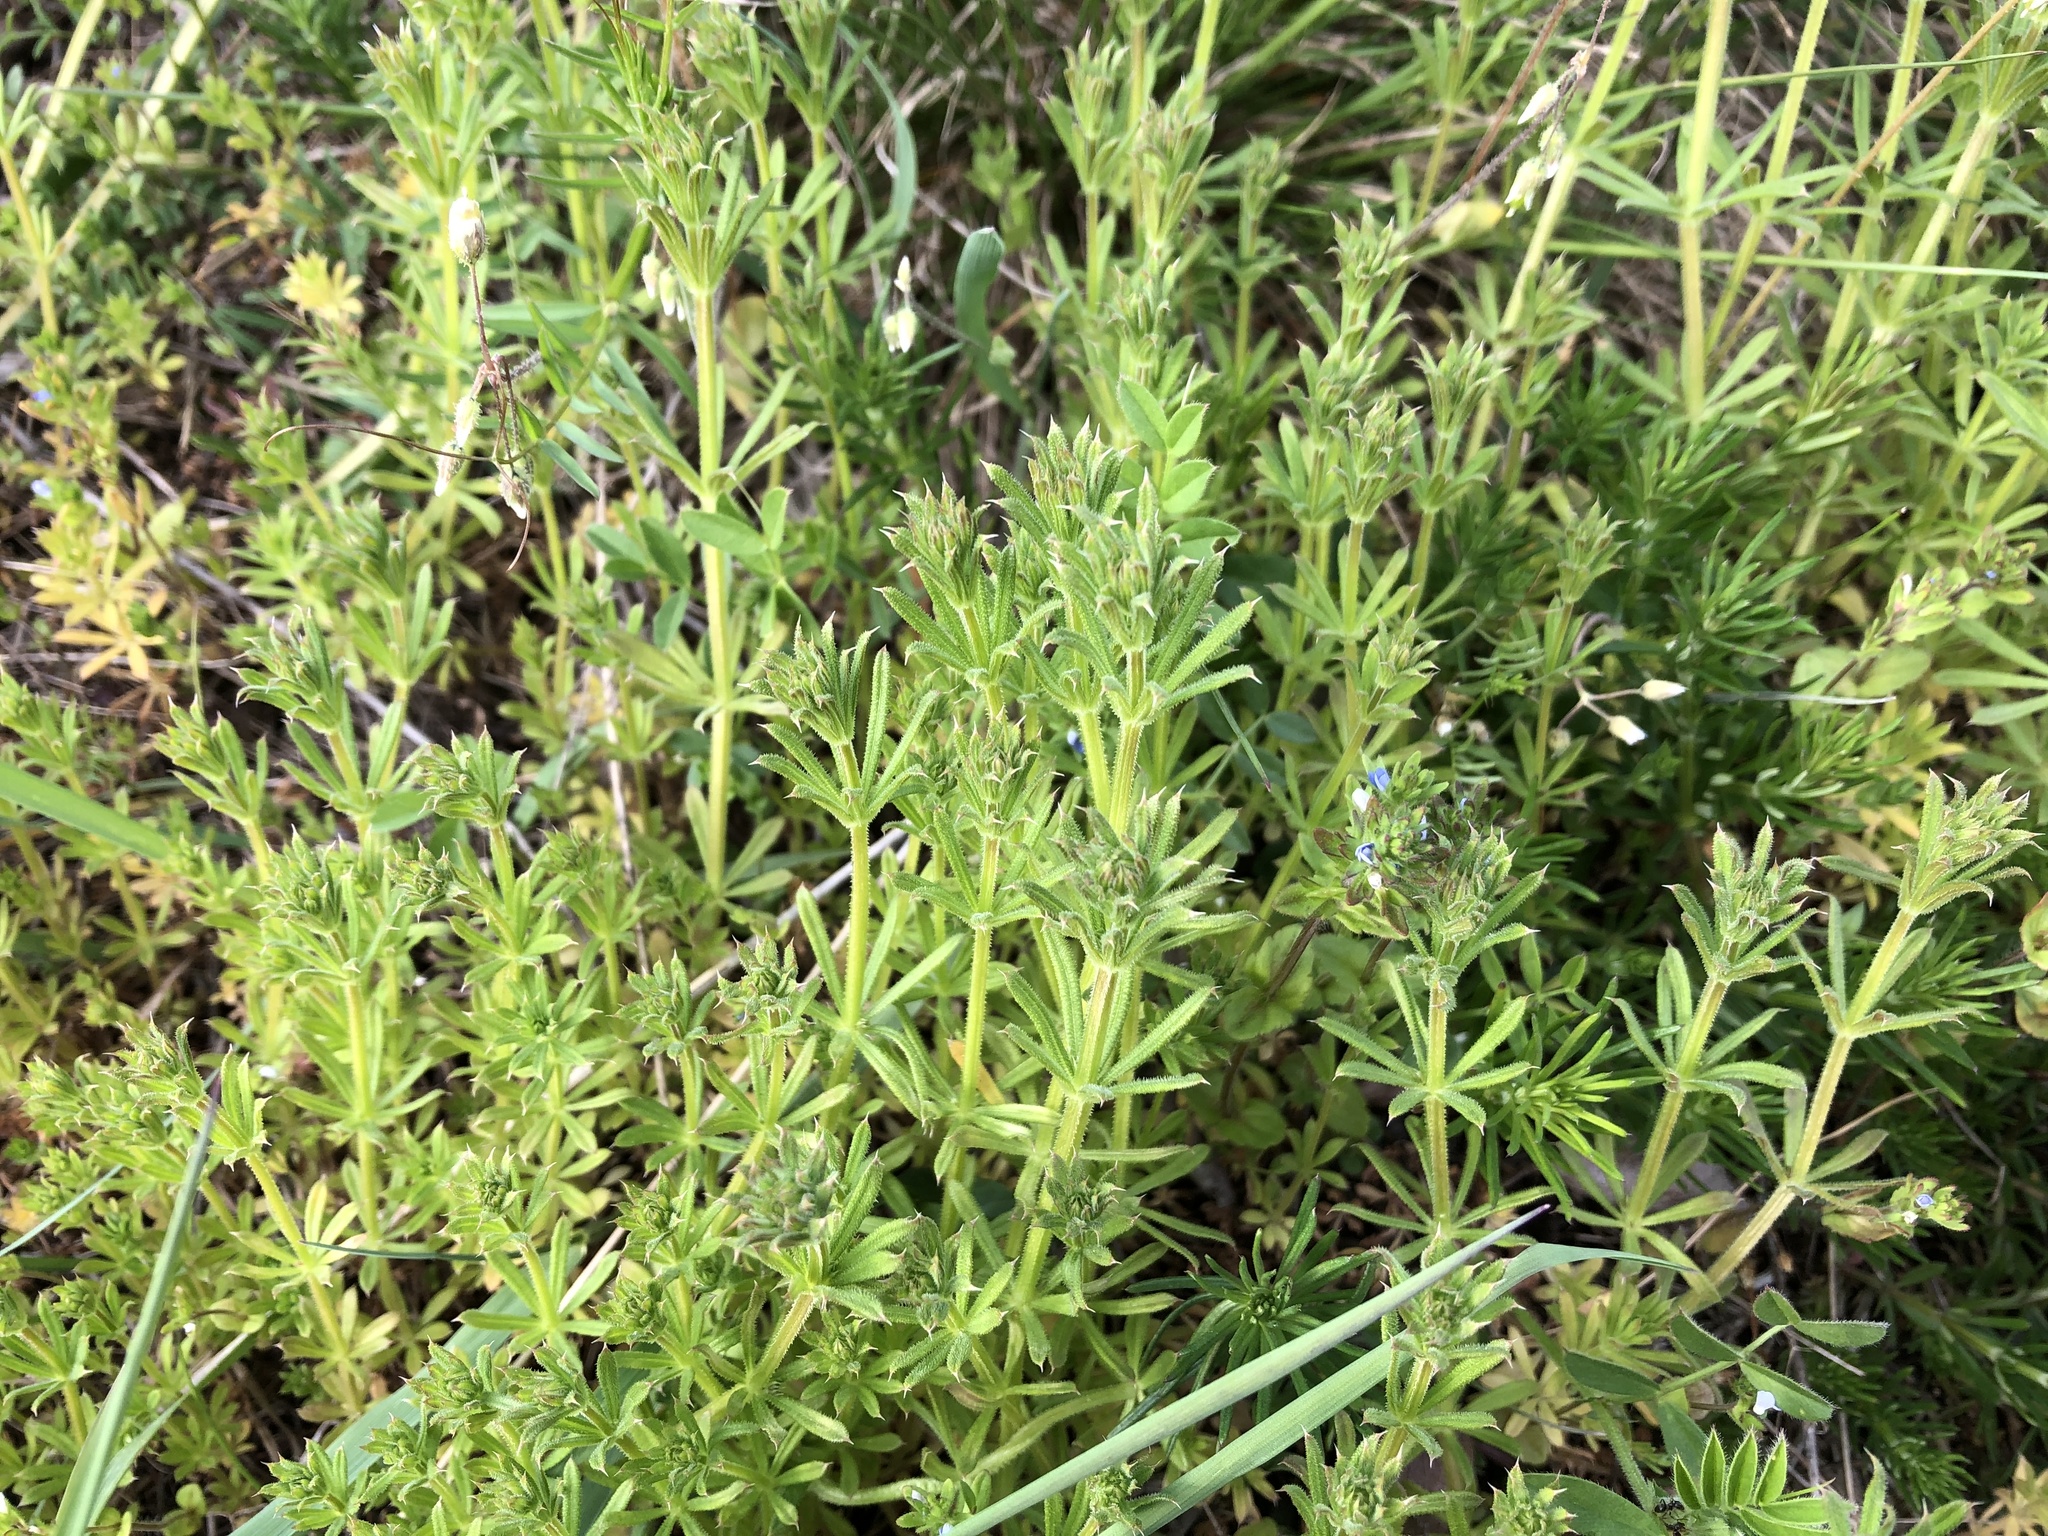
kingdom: Plantae
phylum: Tracheophyta
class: Magnoliopsida
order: Gentianales
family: Rubiaceae
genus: Galium
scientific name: Galium aparine
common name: Cleavers
